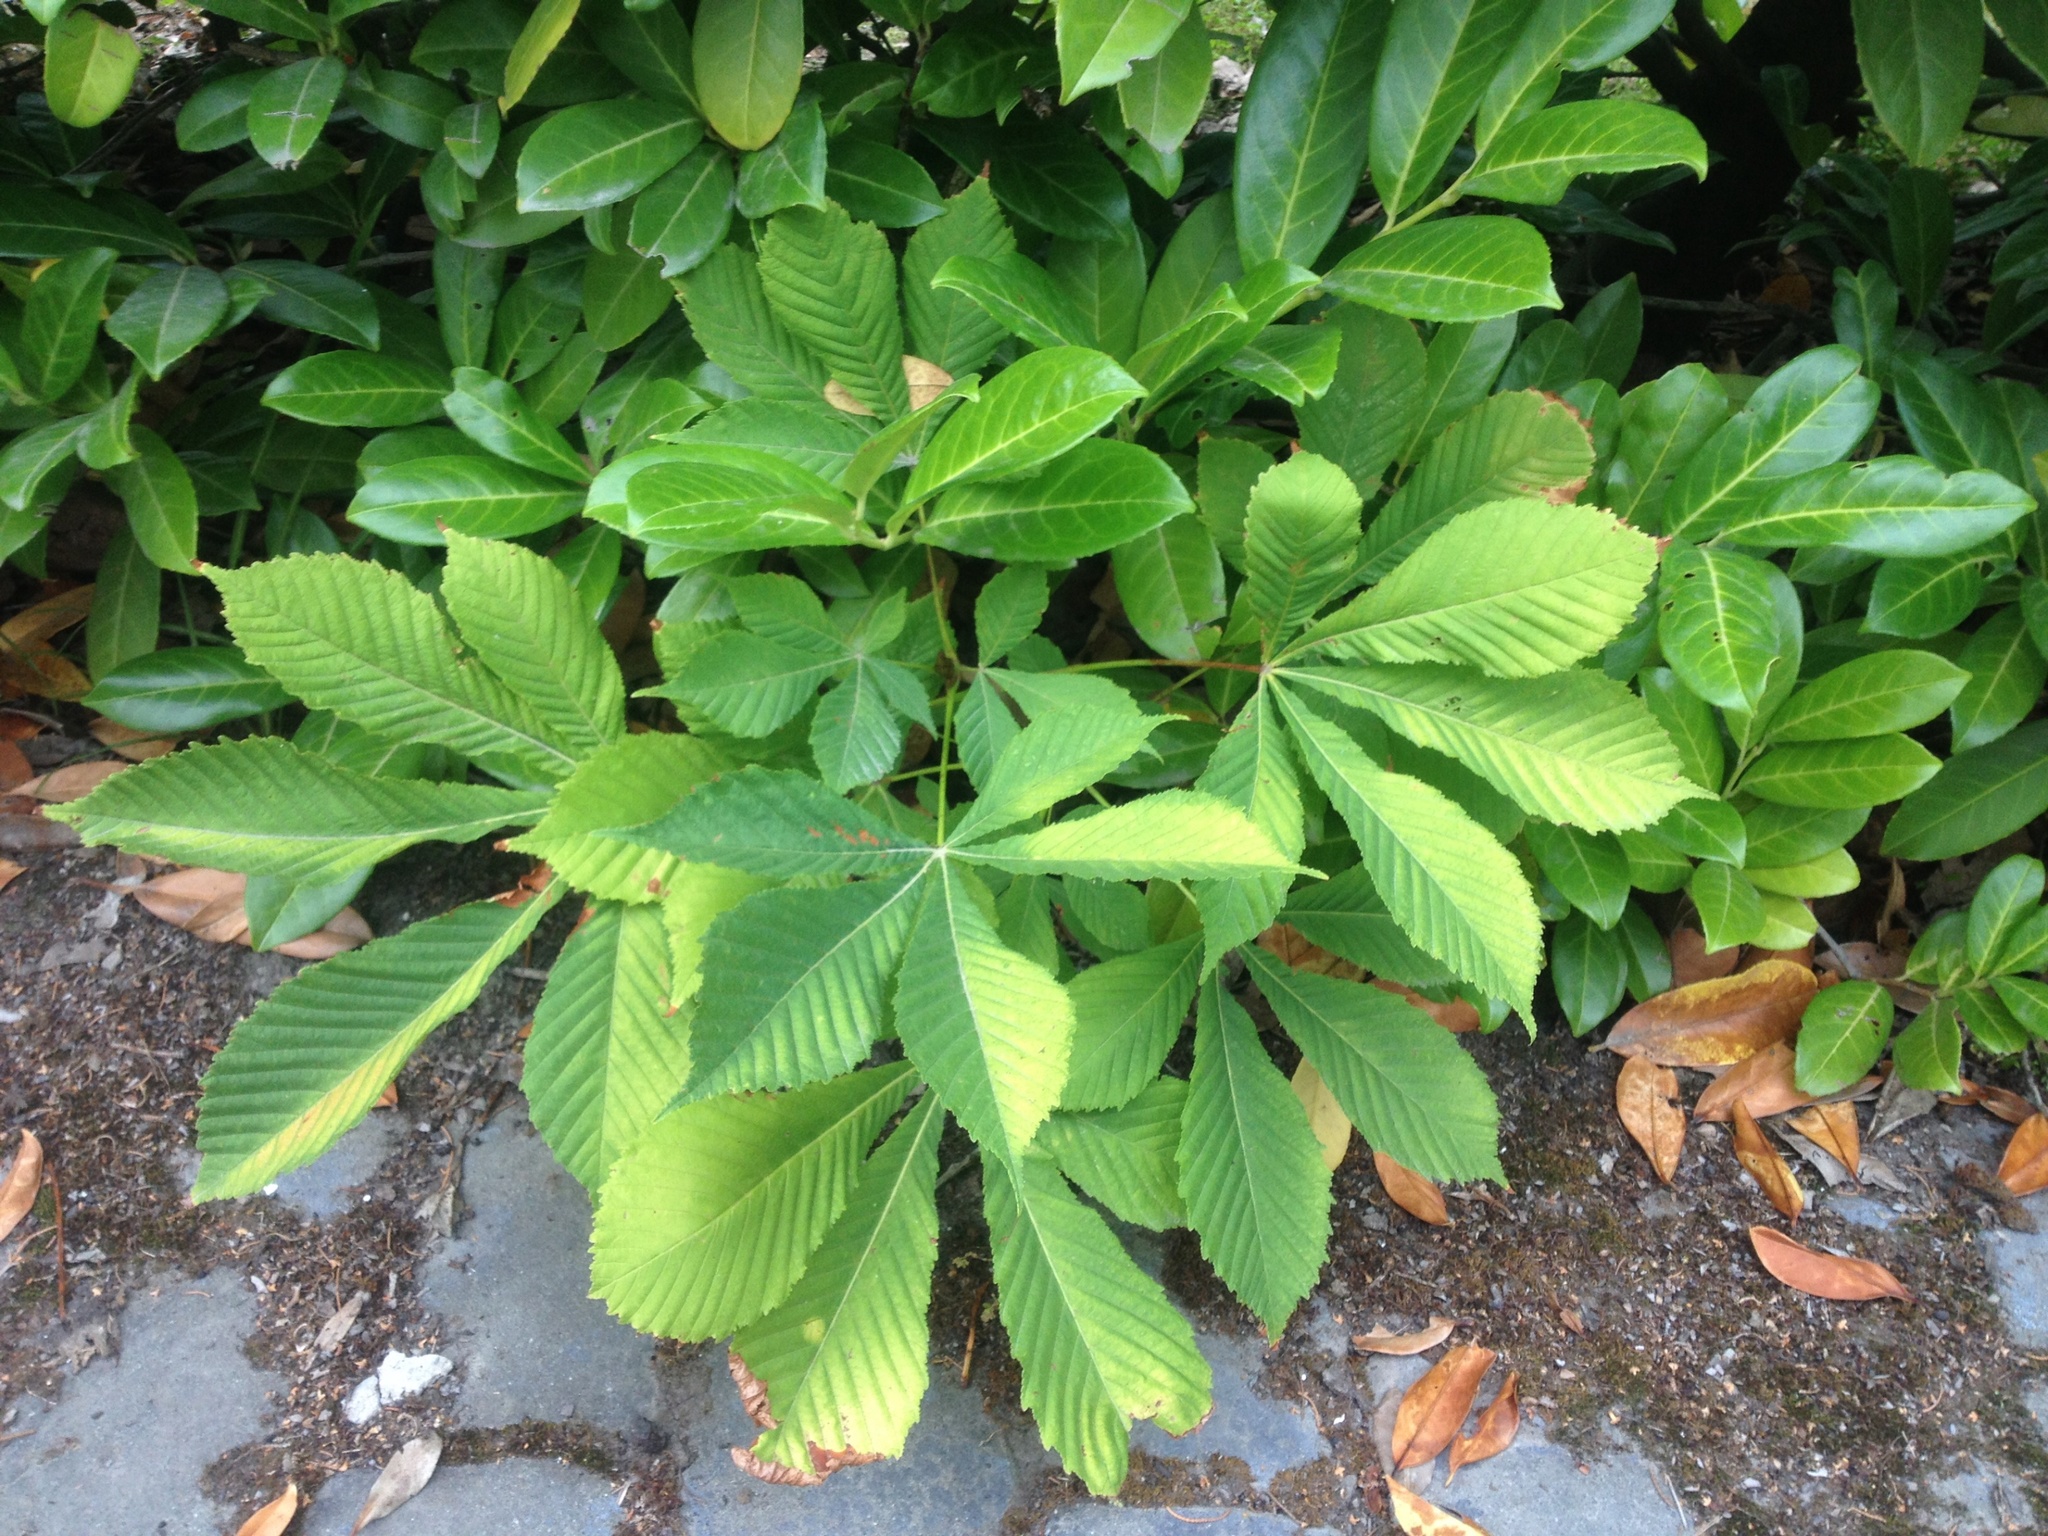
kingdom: Plantae
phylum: Tracheophyta
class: Magnoliopsida
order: Sapindales
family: Sapindaceae
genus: Aesculus
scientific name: Aesculus hippocastanum
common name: Horse-chestnut
